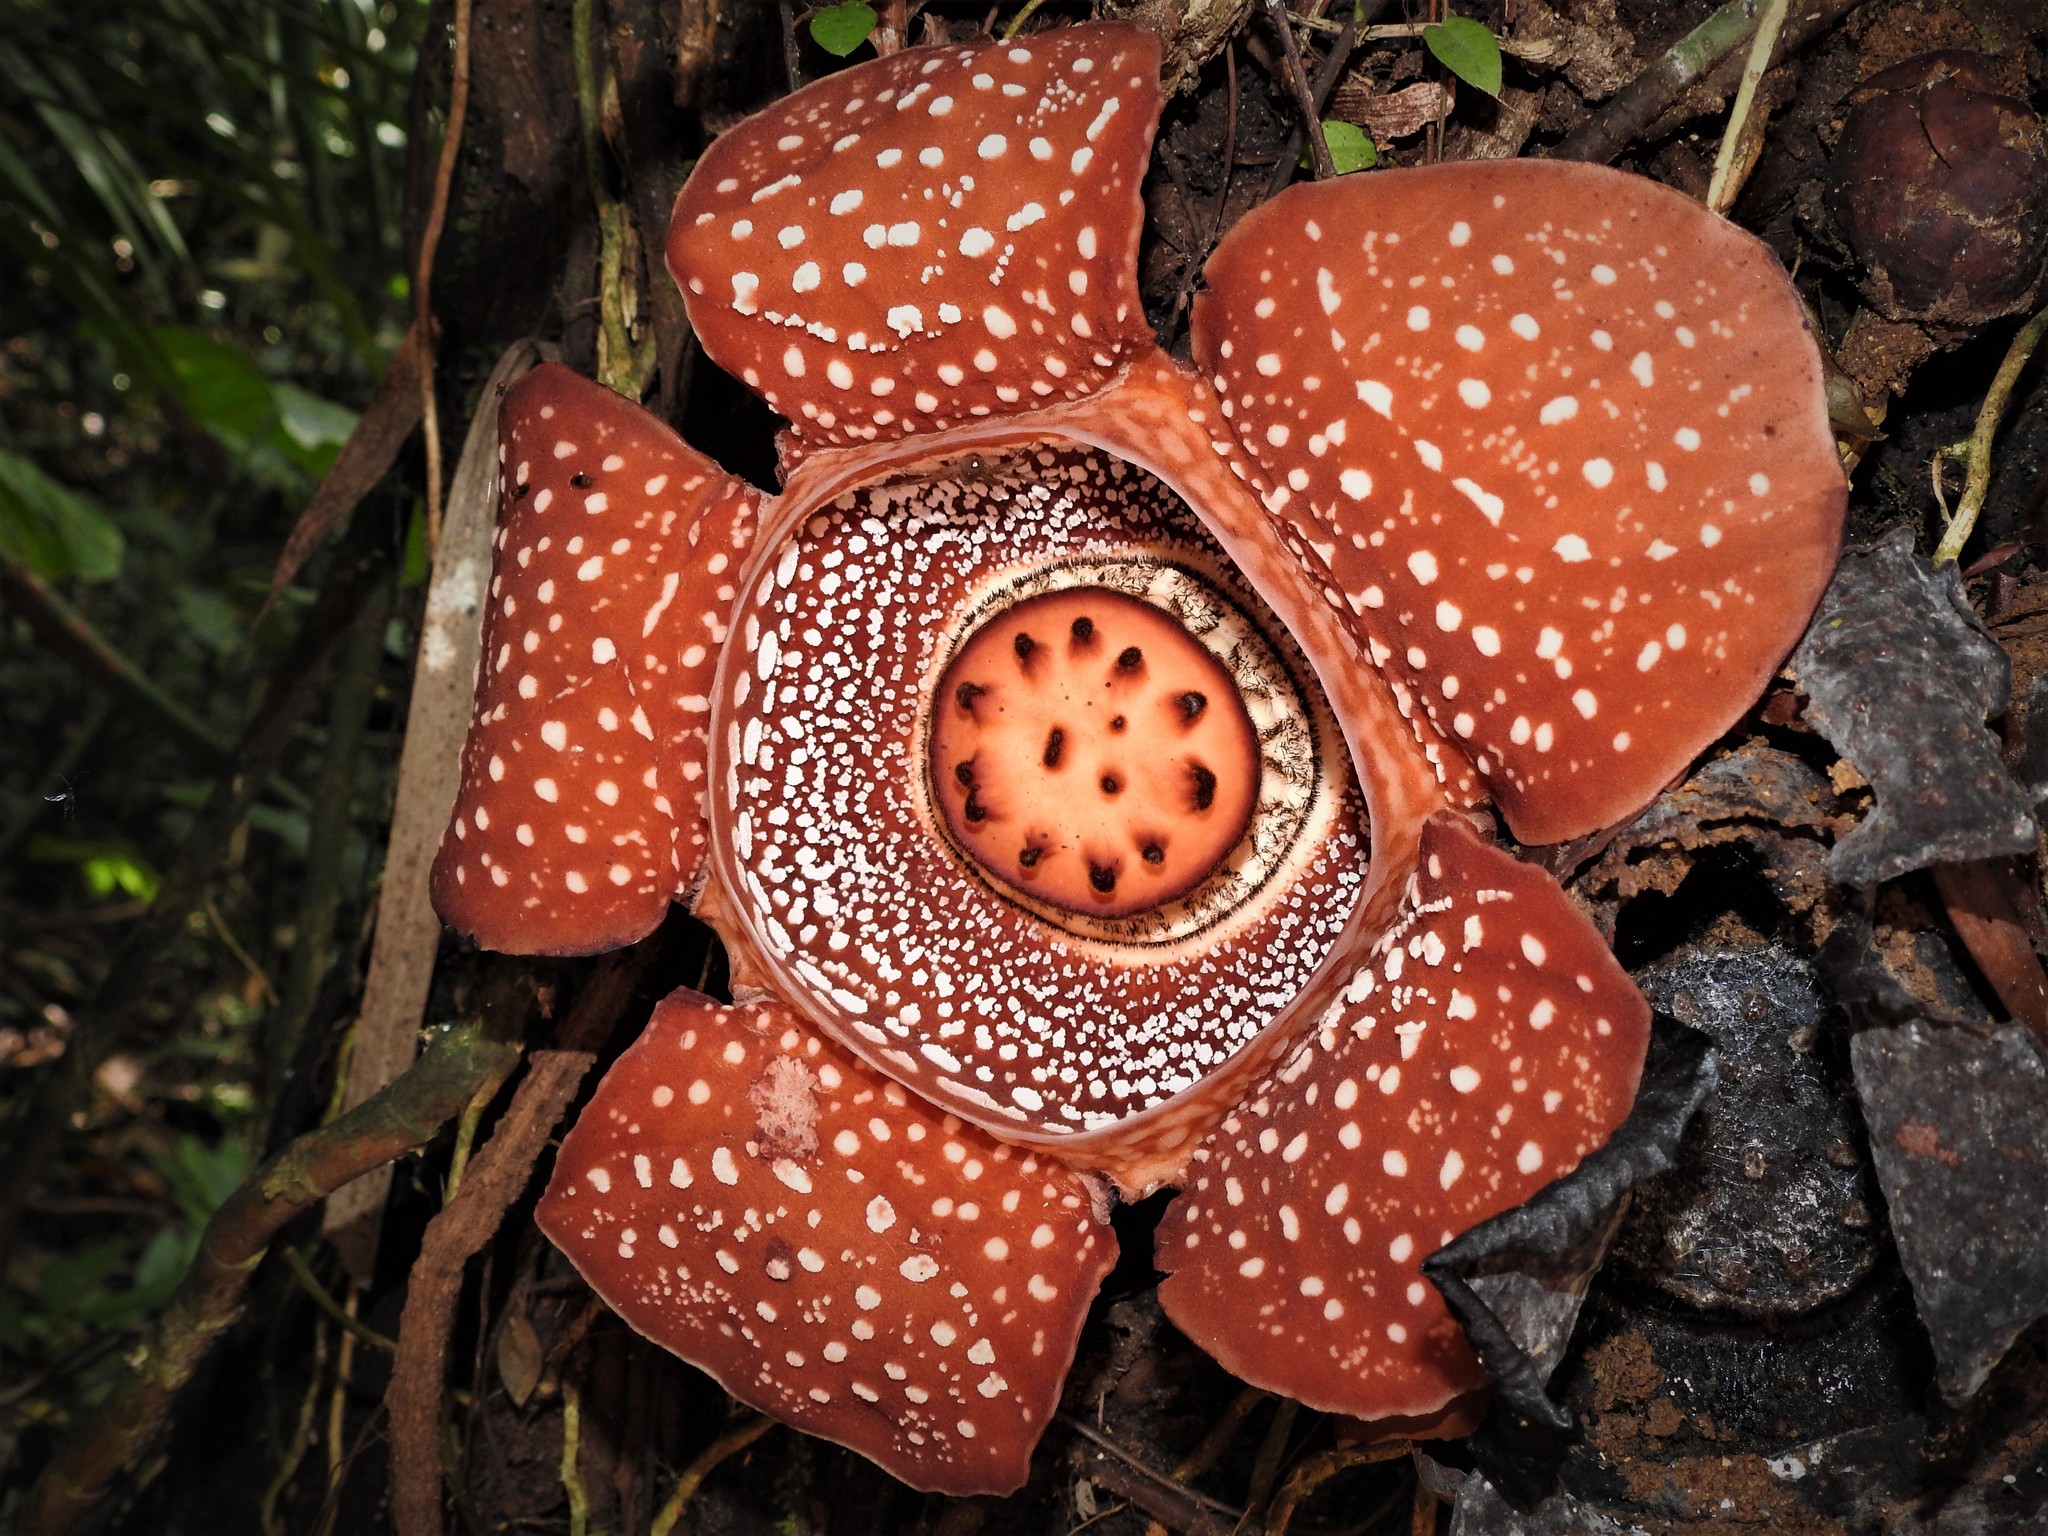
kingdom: Plantae
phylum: Tracheophyta
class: Magnoliopsida
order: Malpighiales
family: Rafflesiaceae
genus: Rafflesia
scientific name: Rafflesia lagascae
